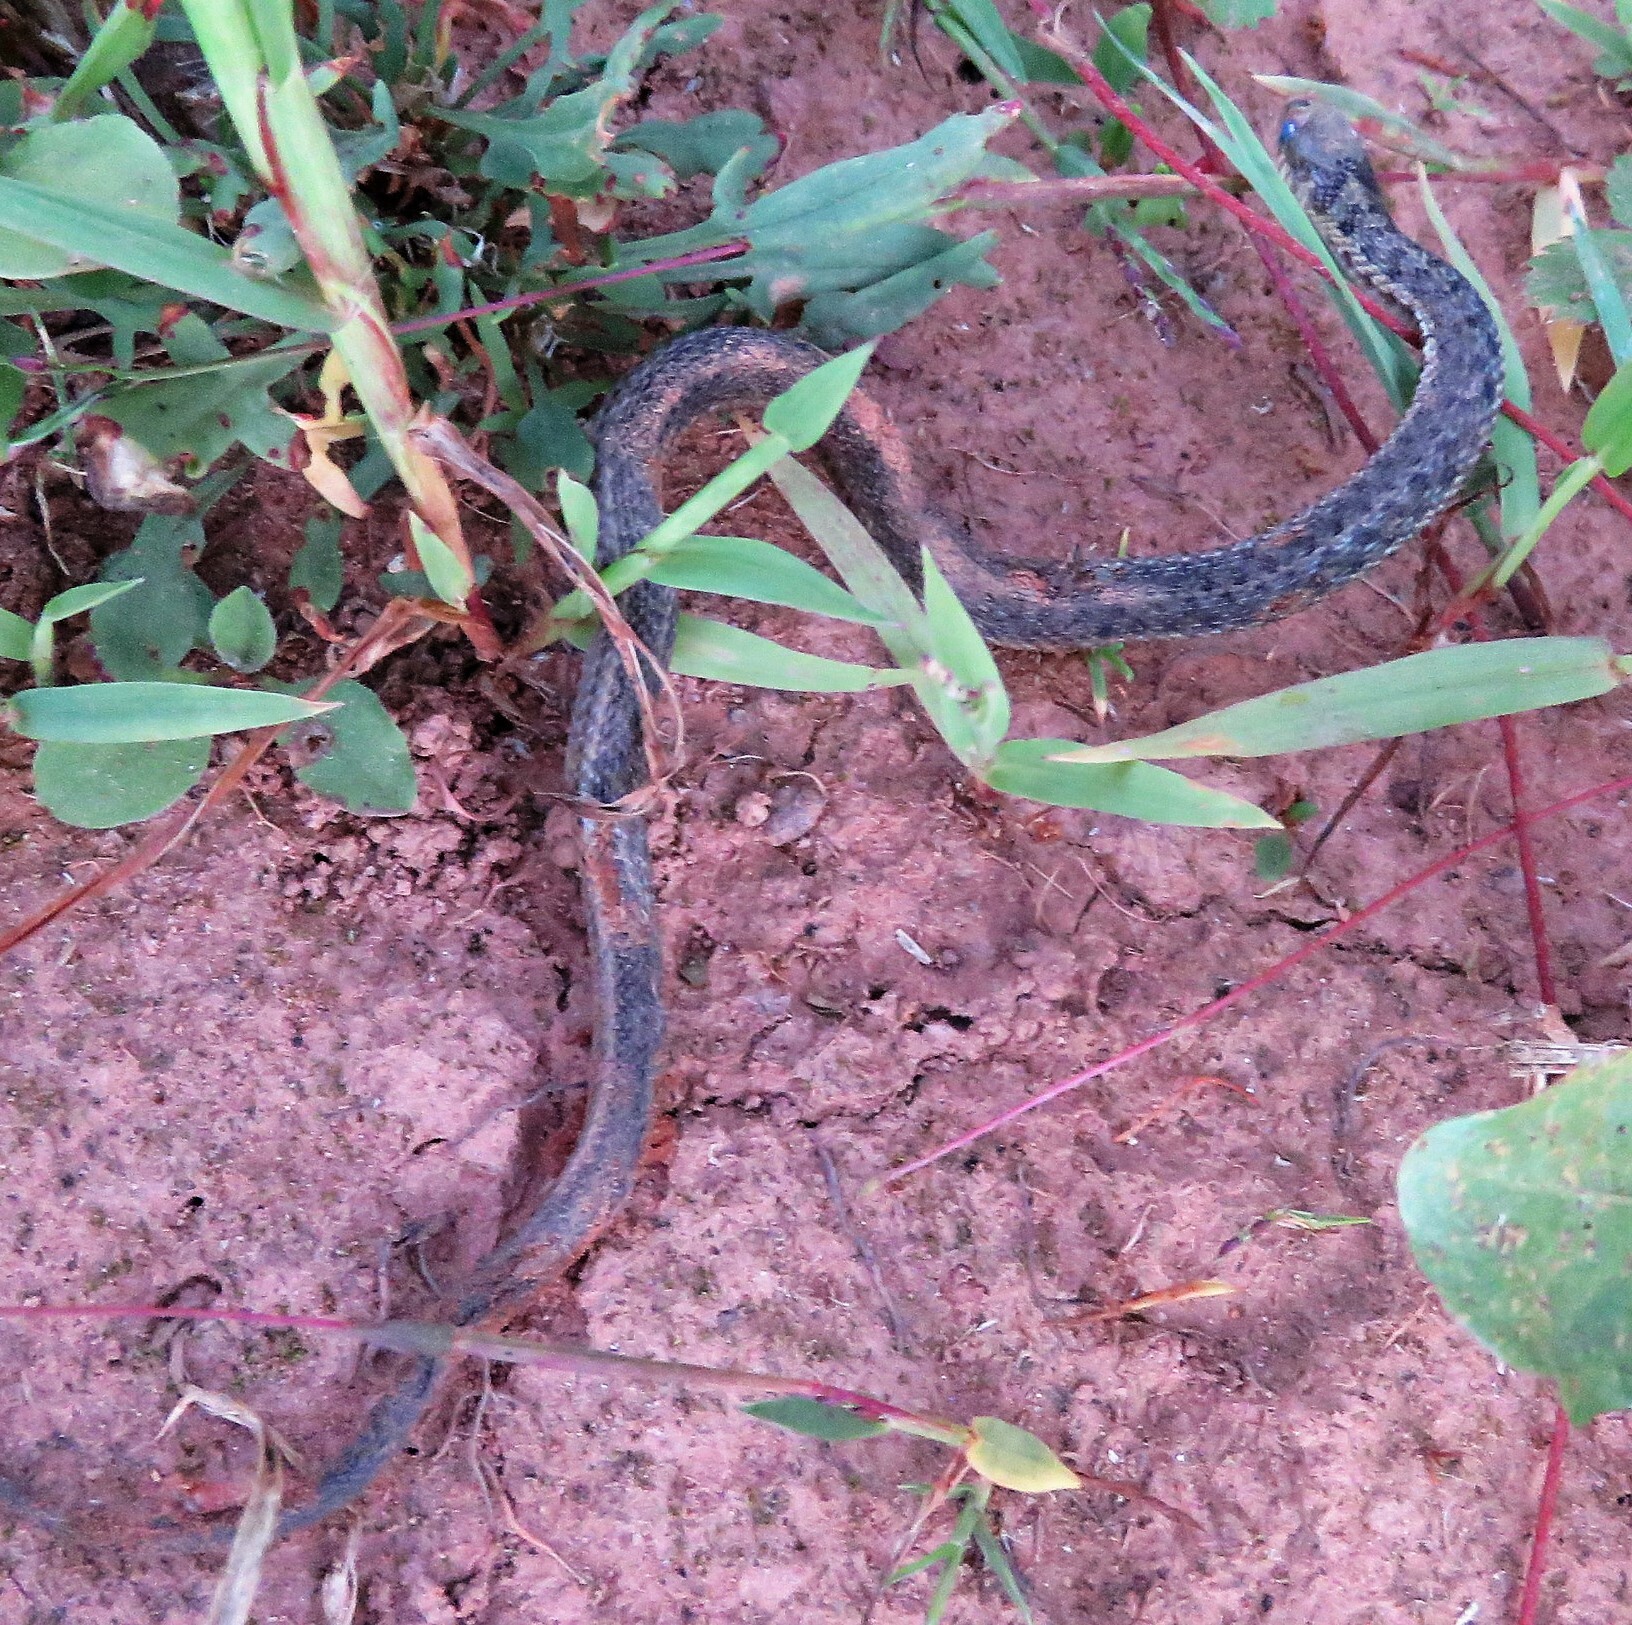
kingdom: Animalia
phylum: Chordata
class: Squamata
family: Colubridae
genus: Thamnophis
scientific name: Thamnophis sirtalis
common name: Common garter snake
